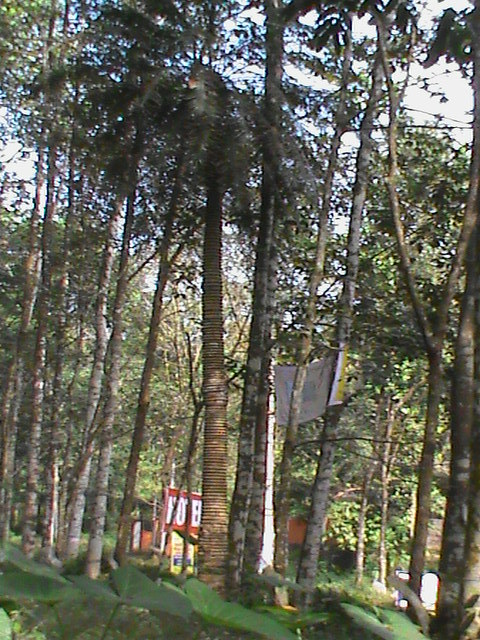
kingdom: Plantae
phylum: Tracheophyta
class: Cycadopsida
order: Cycadales
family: Cycadaceae
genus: Cycas
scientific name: Cycas circinalis
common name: Queen sago
